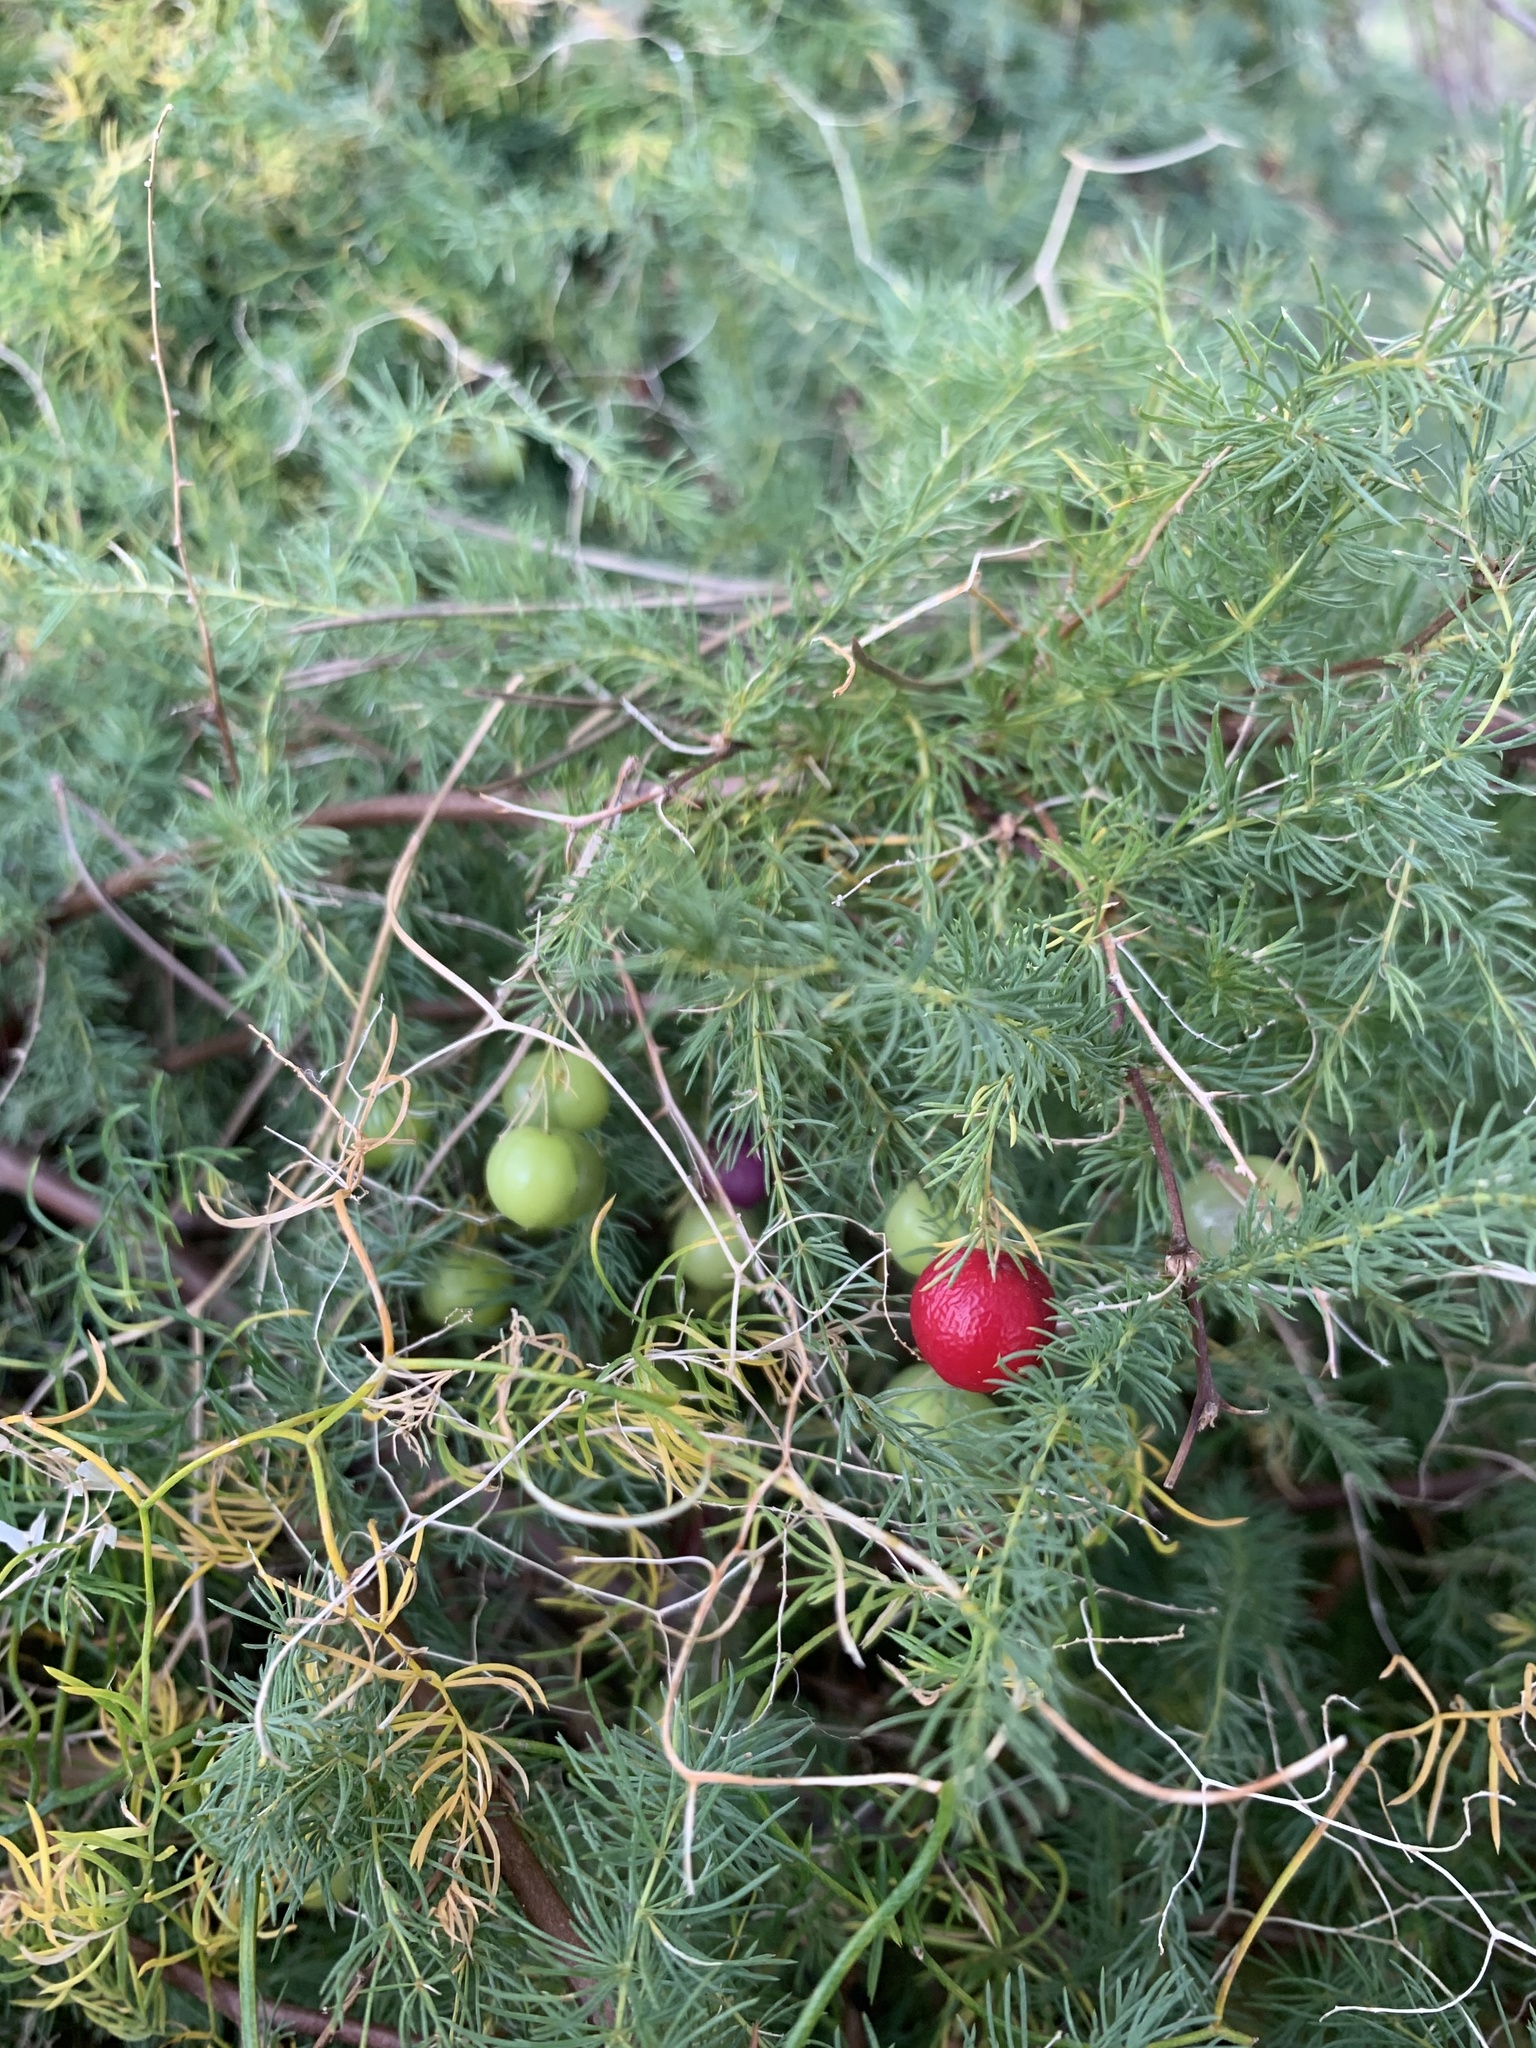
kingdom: Plantae
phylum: Tracheophyta
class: Liliopsida
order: Asparagales
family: Asparagaceae
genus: Asparagus
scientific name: Asparagus rubicundus
